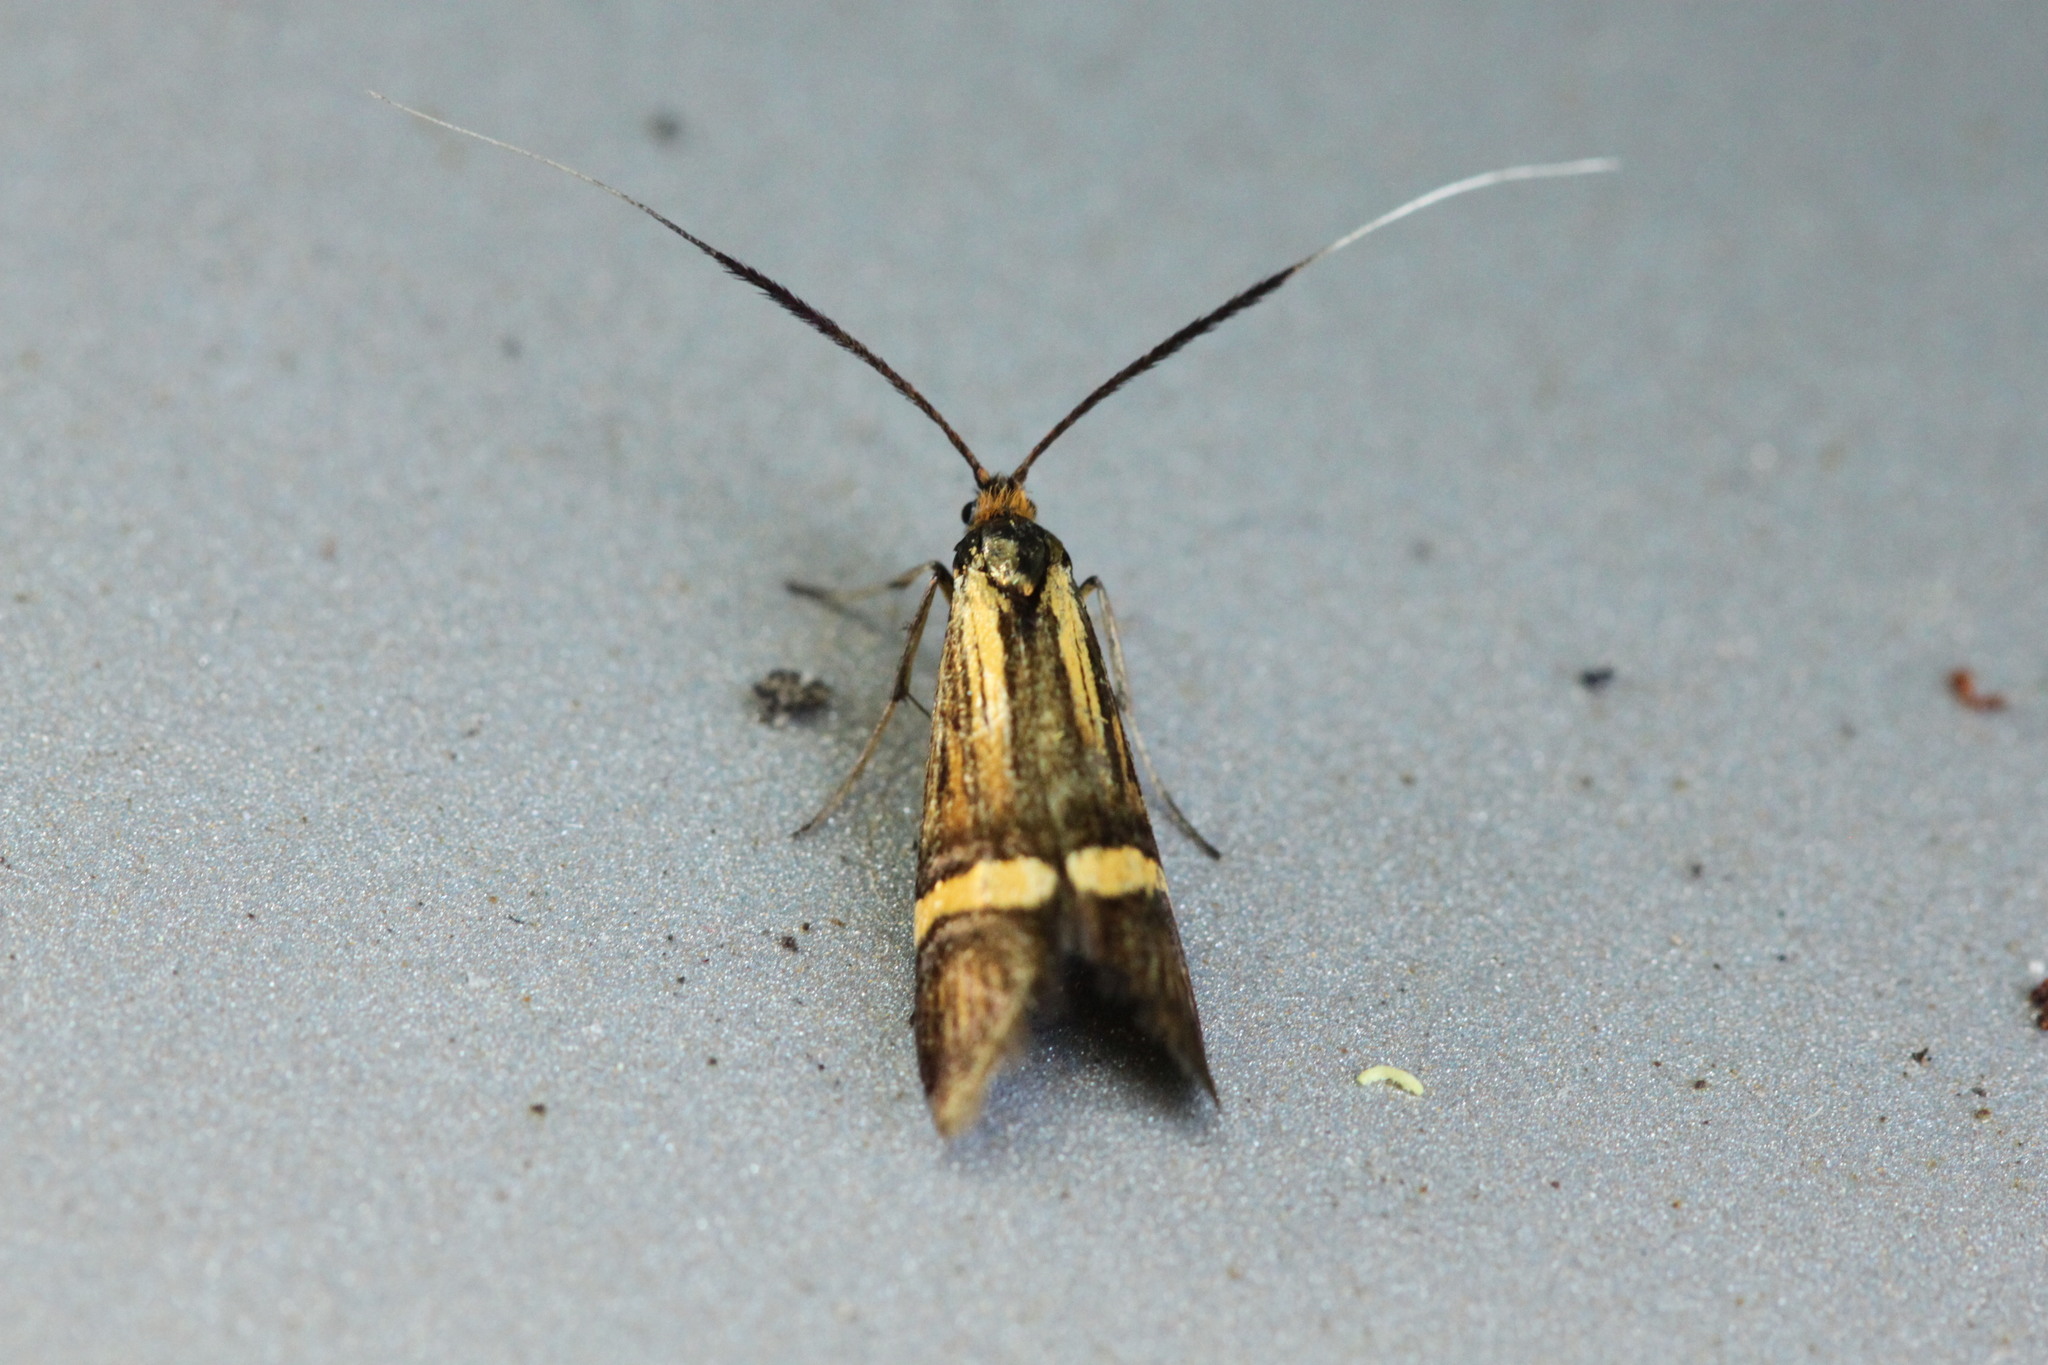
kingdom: Animalia
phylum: Arthropoda
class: Insecta
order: Lepidoptera
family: Adelidae
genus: Nemophora
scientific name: Nemophora degeerella
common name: Yellow-barred long-horn
